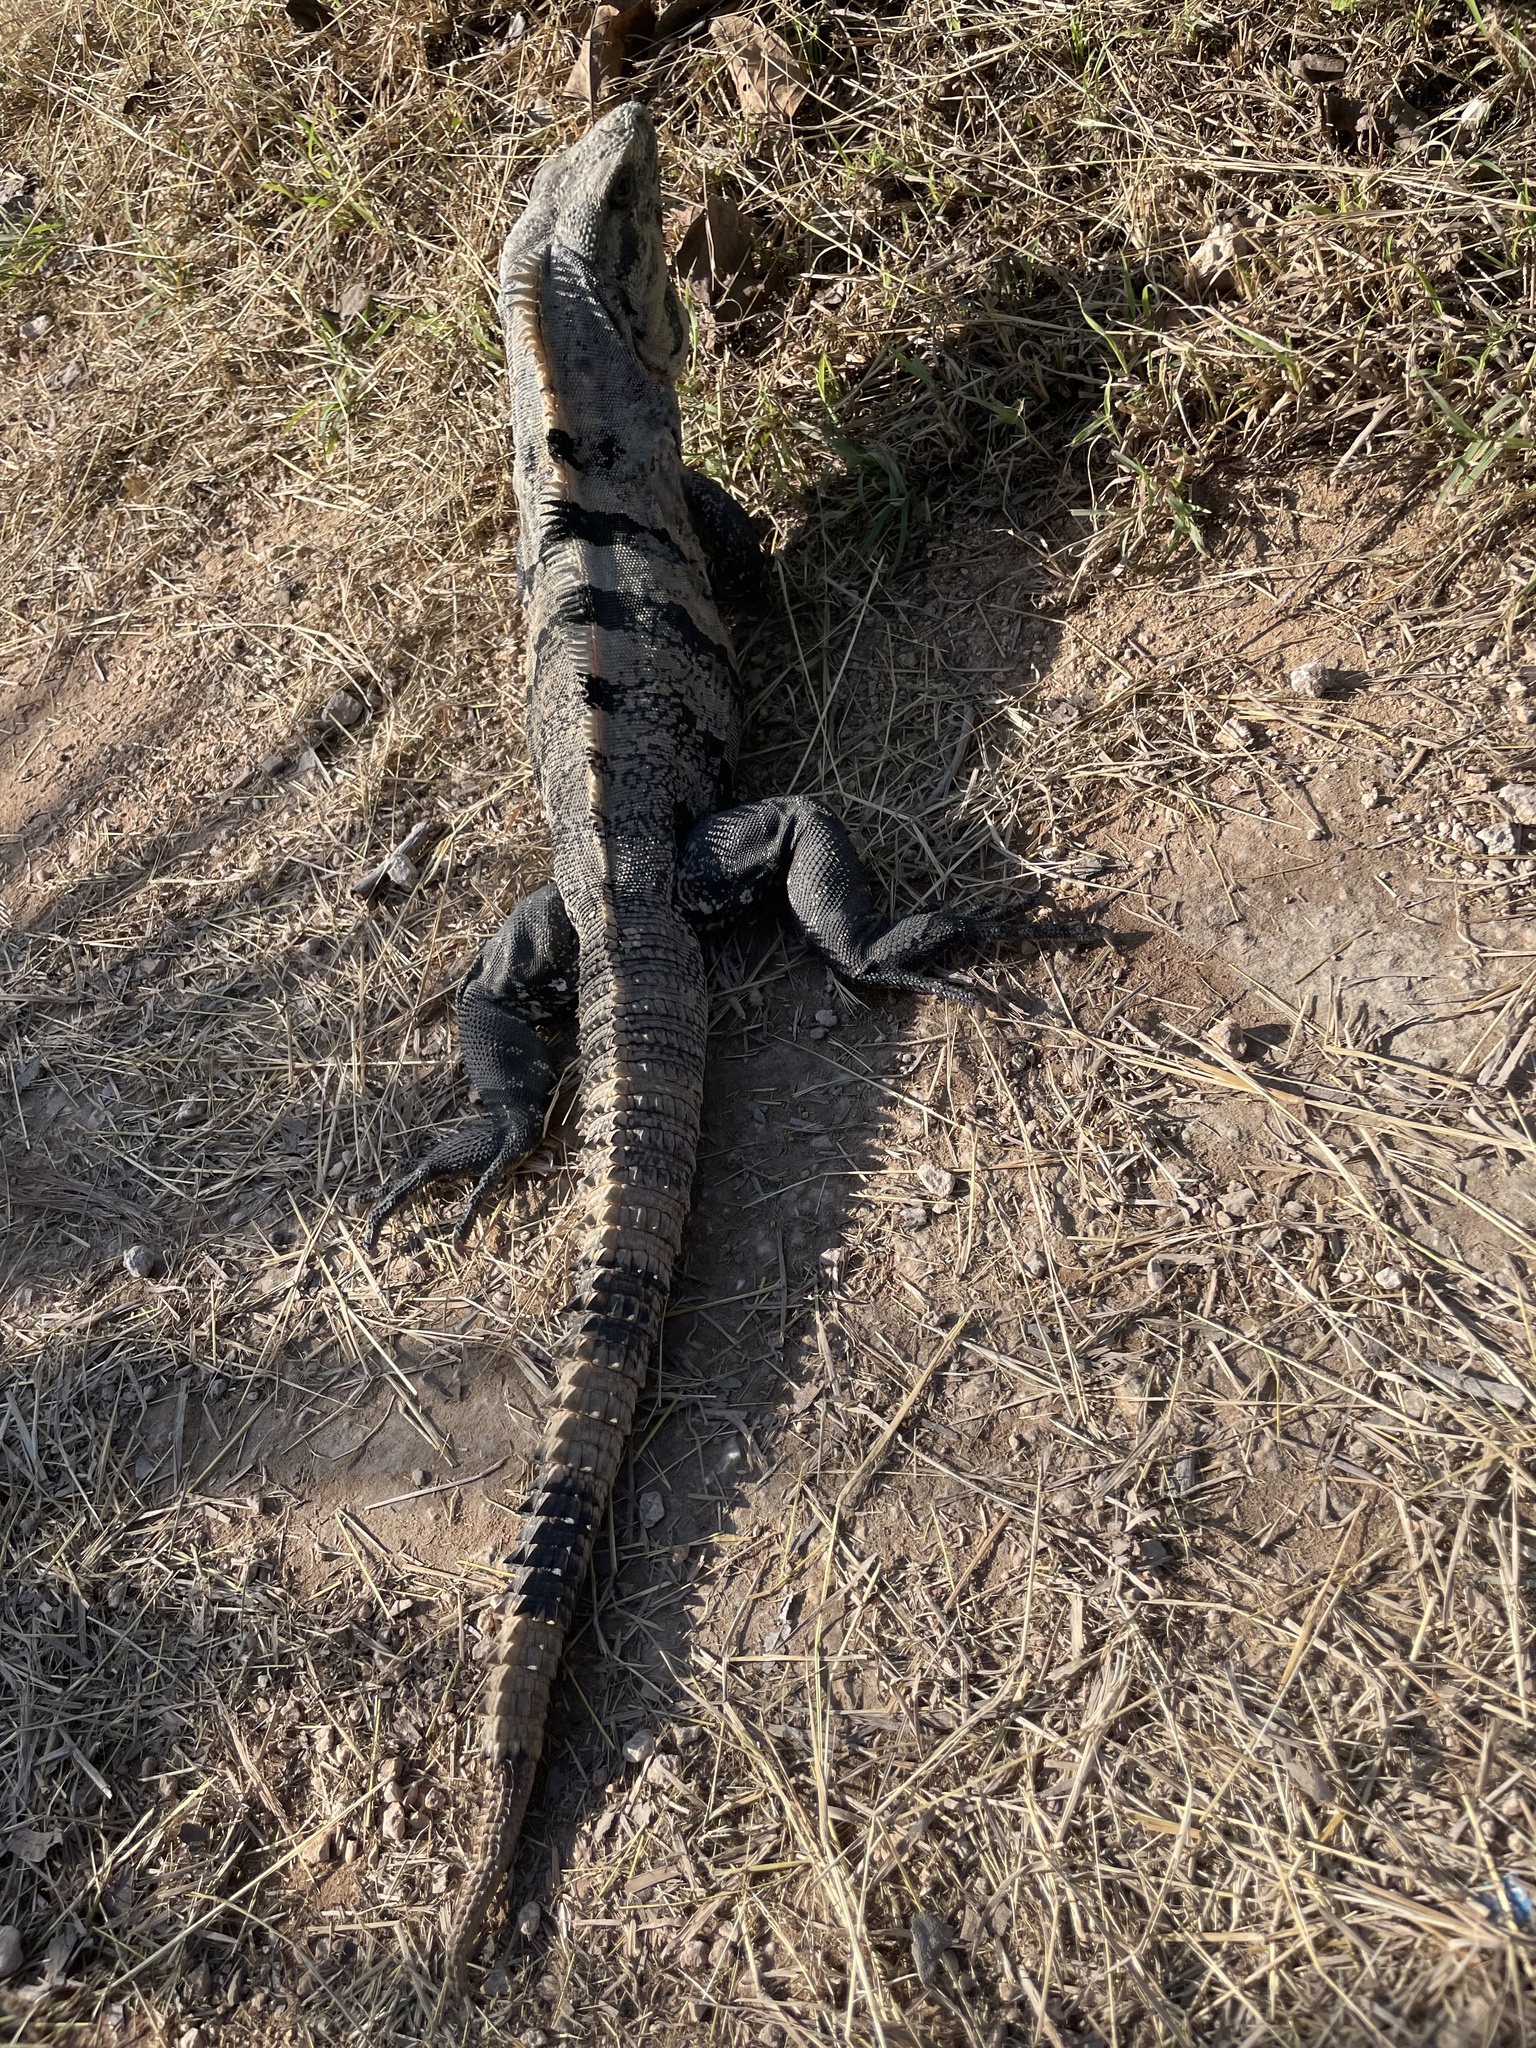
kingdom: Animalia
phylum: Chordata
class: Squamata
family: Iguanidae
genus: Ctenosaura
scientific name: Ctenosaura similis
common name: Black spiny-tailed iguana
